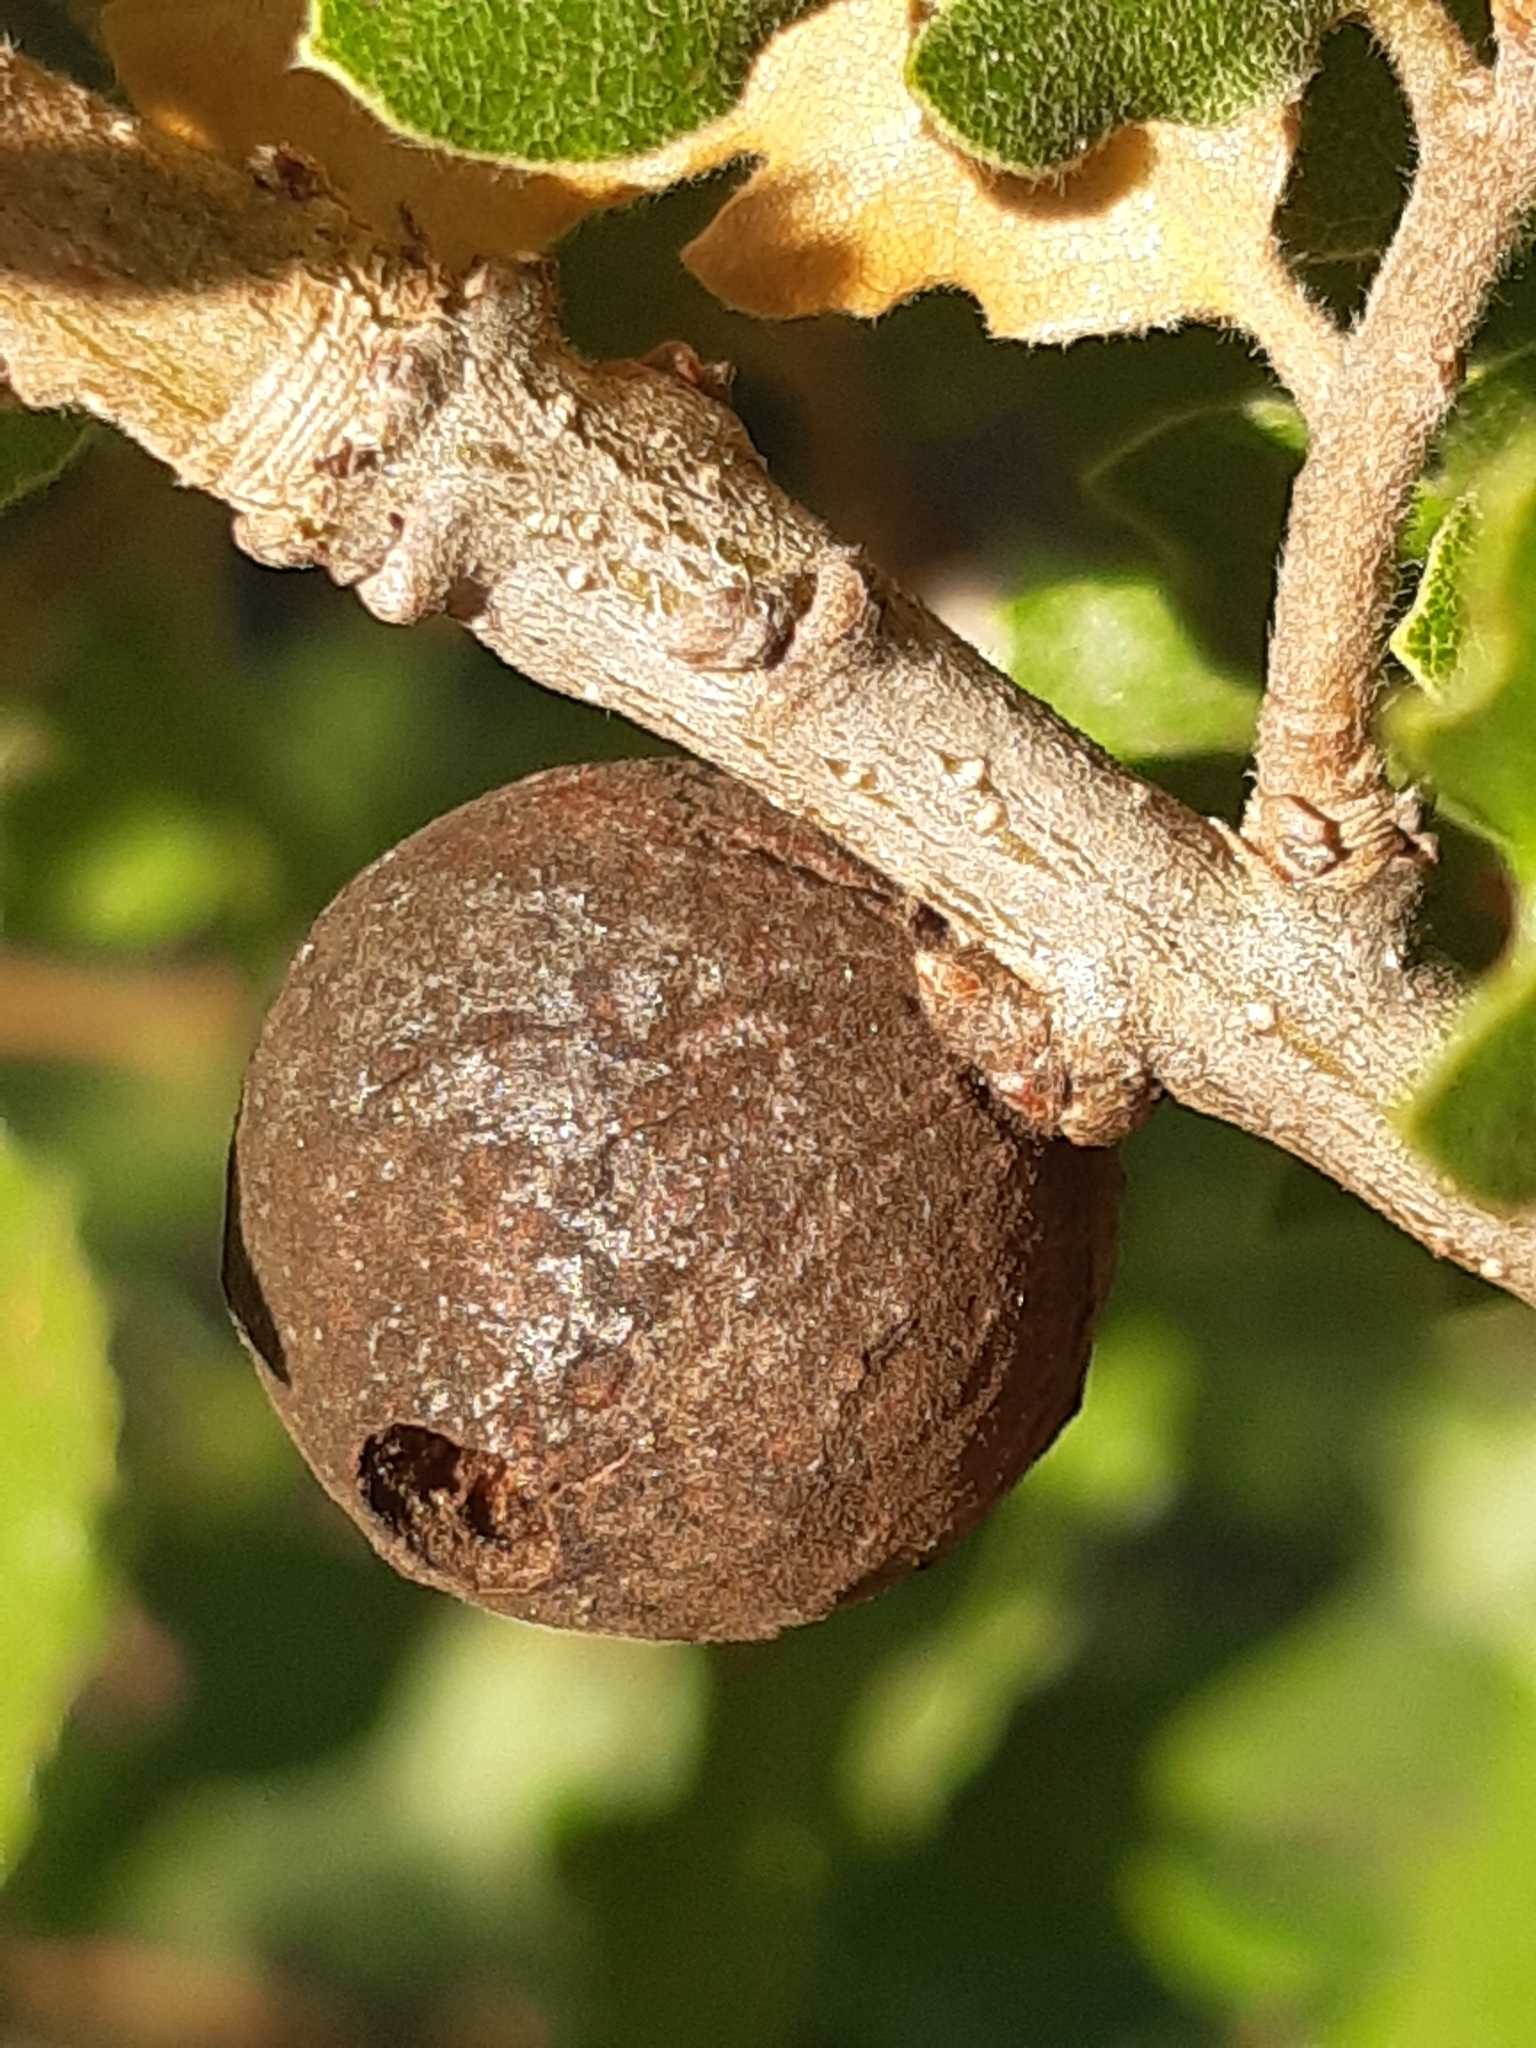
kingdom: Animalia
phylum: Arthropoda
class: Insecta
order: Hymenoptera
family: Cynipidae
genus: Andricus
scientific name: Andricus kollari
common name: Marble gall
